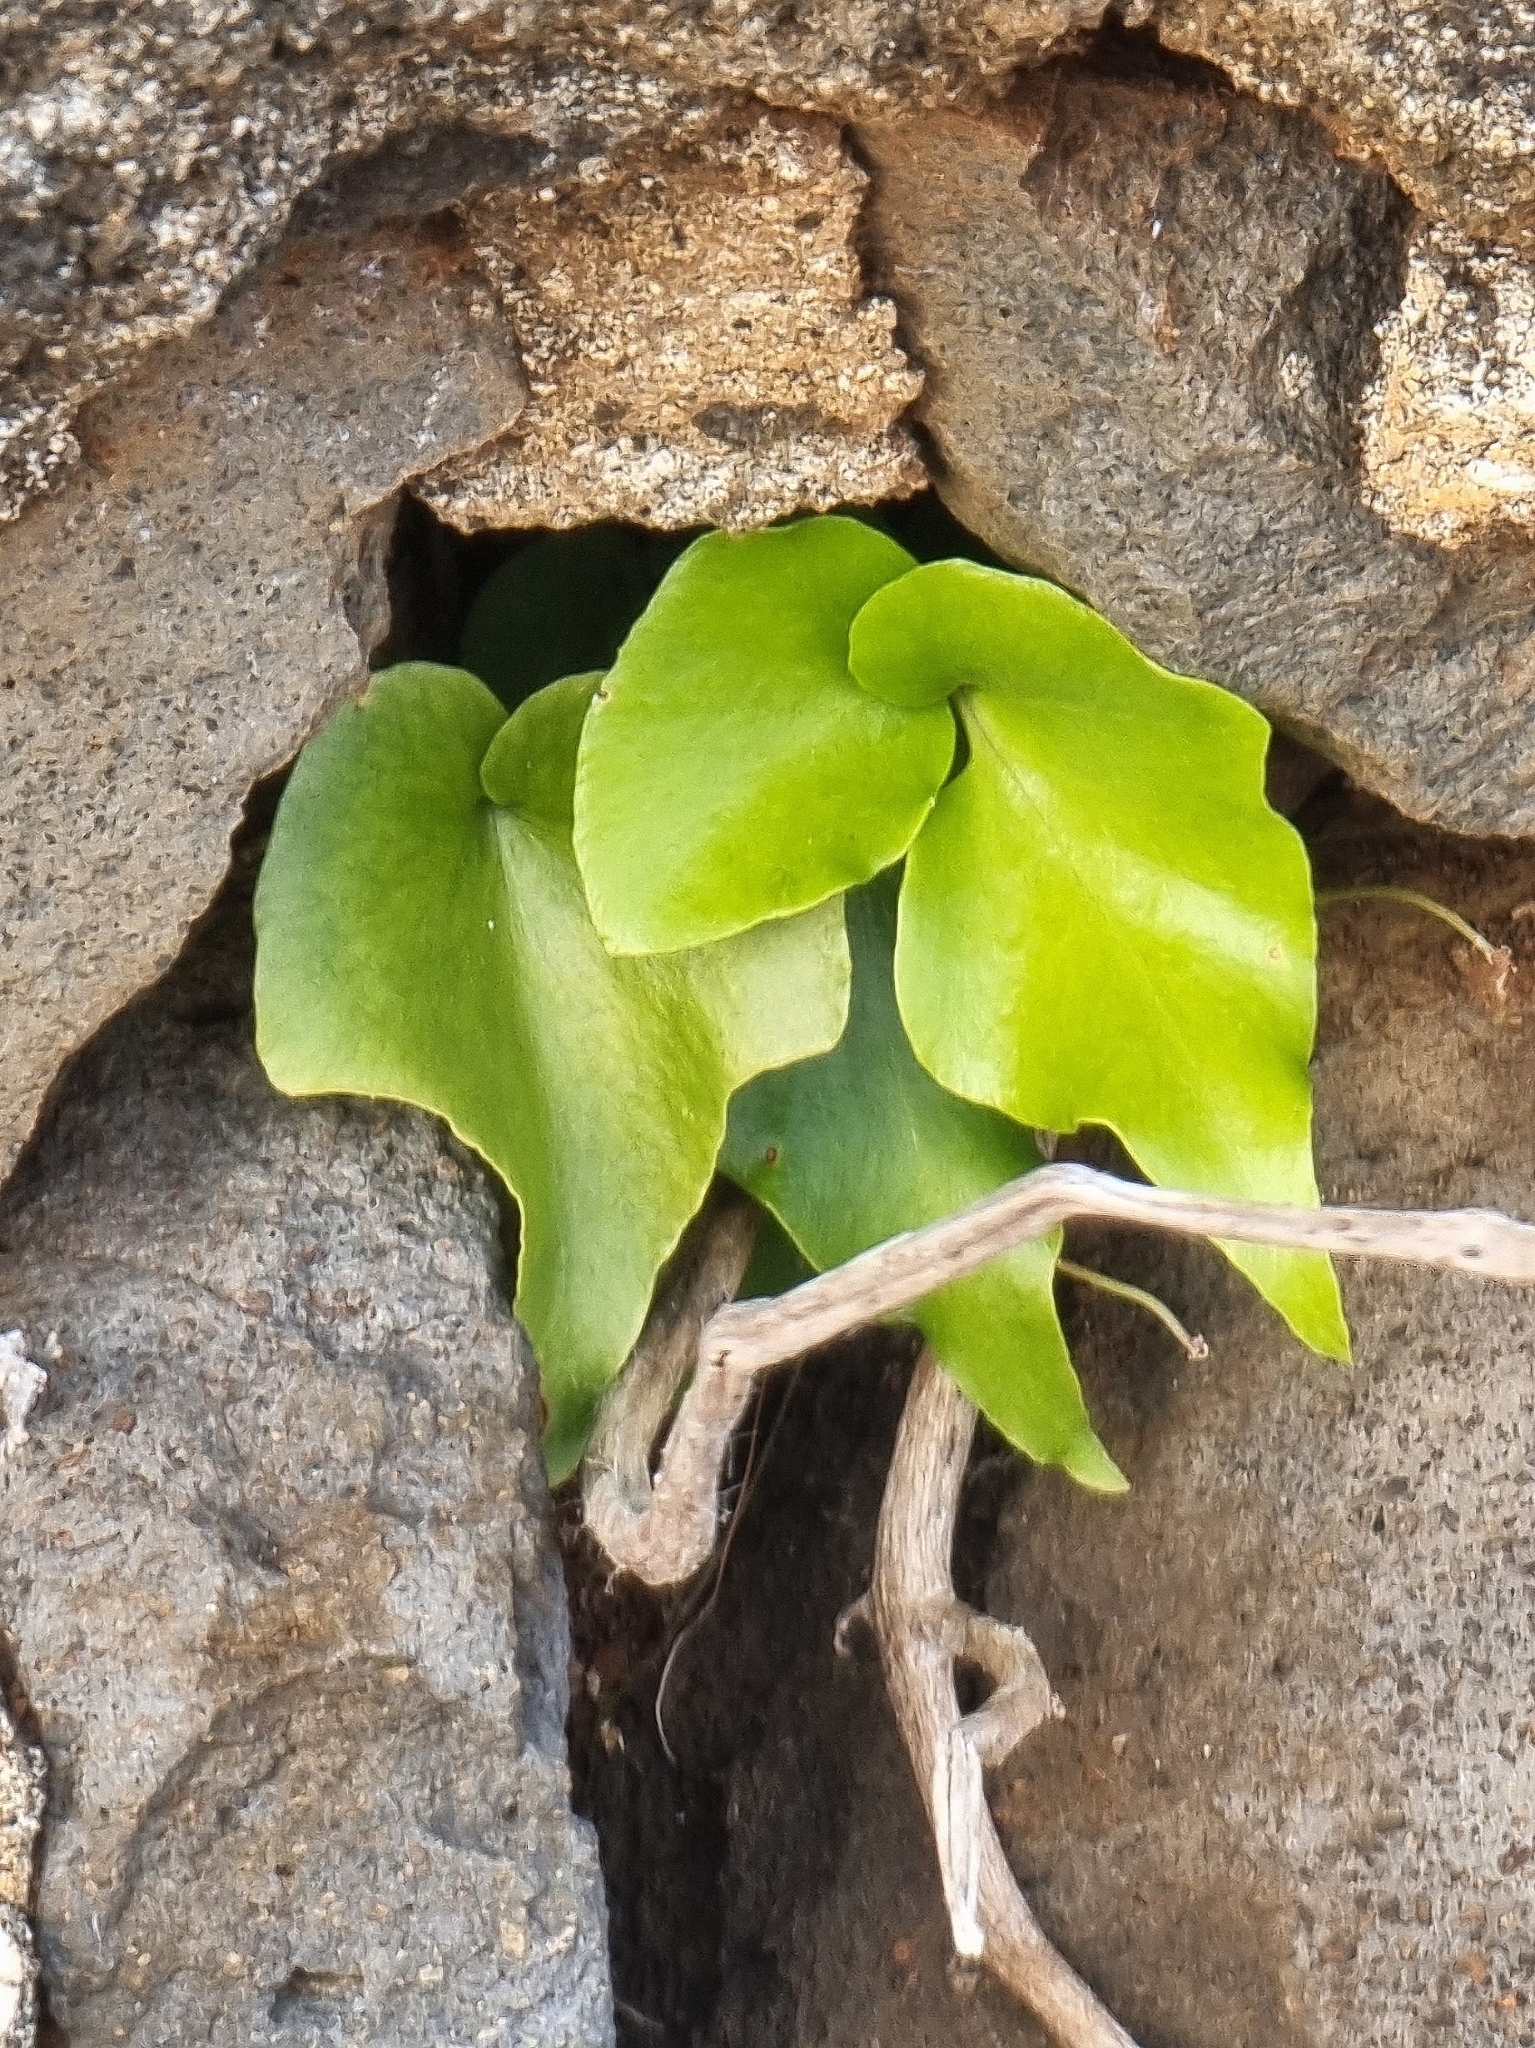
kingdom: Plantae
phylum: Tracheophyta
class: Polypodiopsida
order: Polypodiales
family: Dryopteridaceae
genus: Cyrtomium
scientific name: Cyrtomium falcatum
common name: House holly-fern
